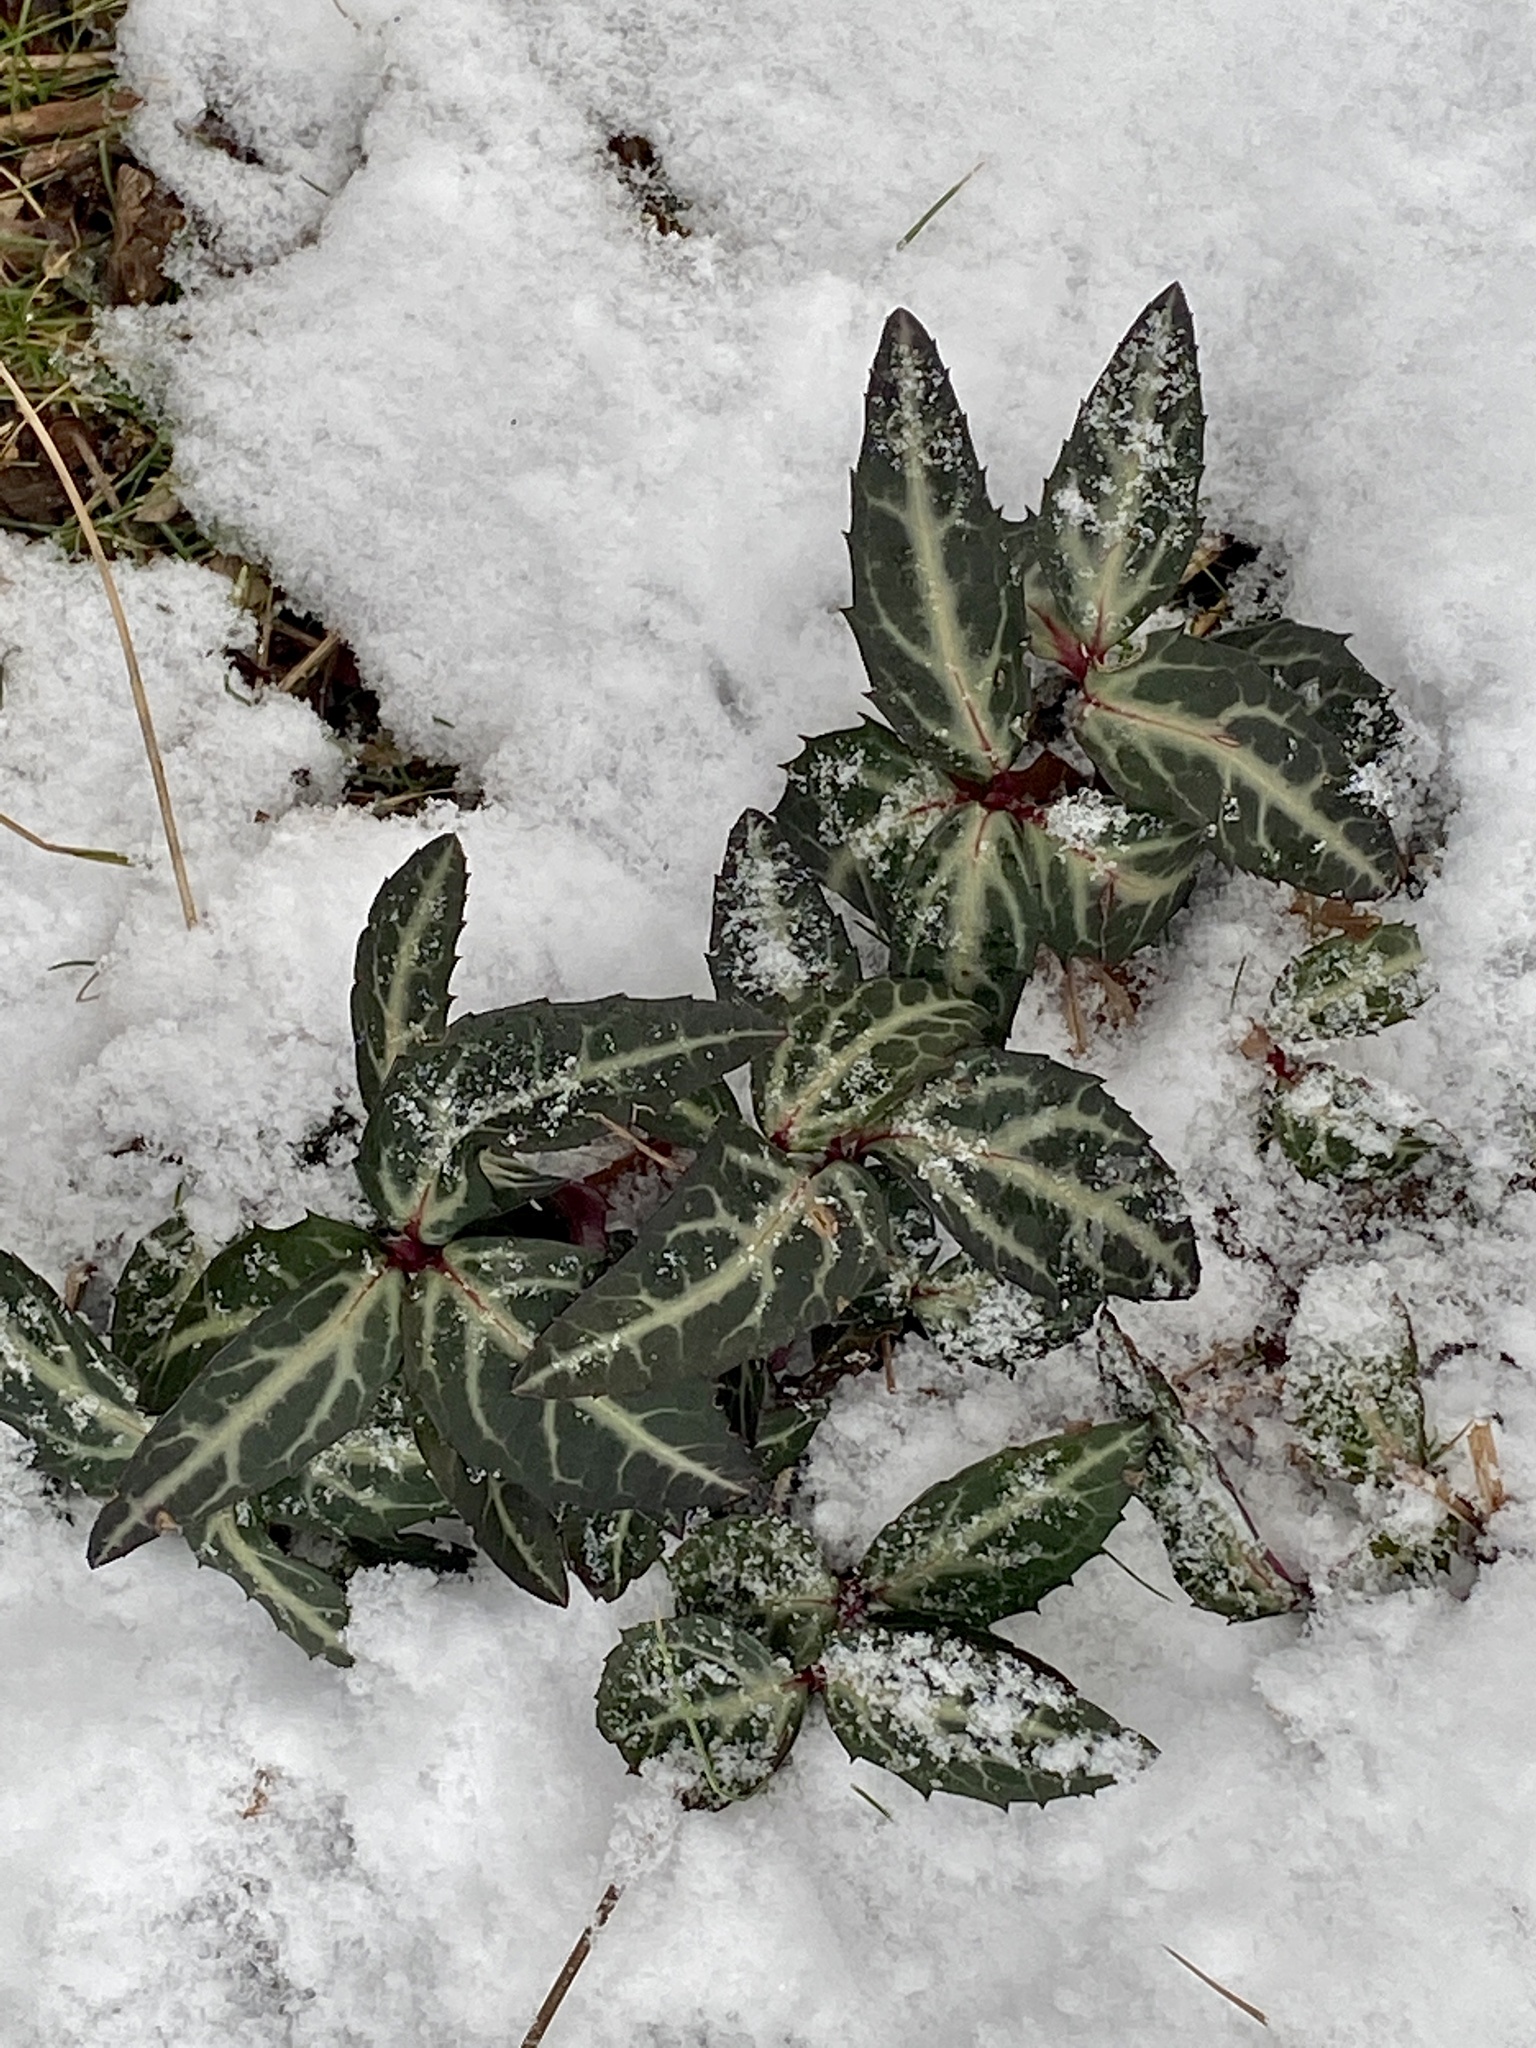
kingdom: Plantae
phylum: Tracheophyta
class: Magnoliopsida
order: Ericales
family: Ericaceae
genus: Chimaphila
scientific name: Chimaphila maculata
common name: Spotted pipsissewa
